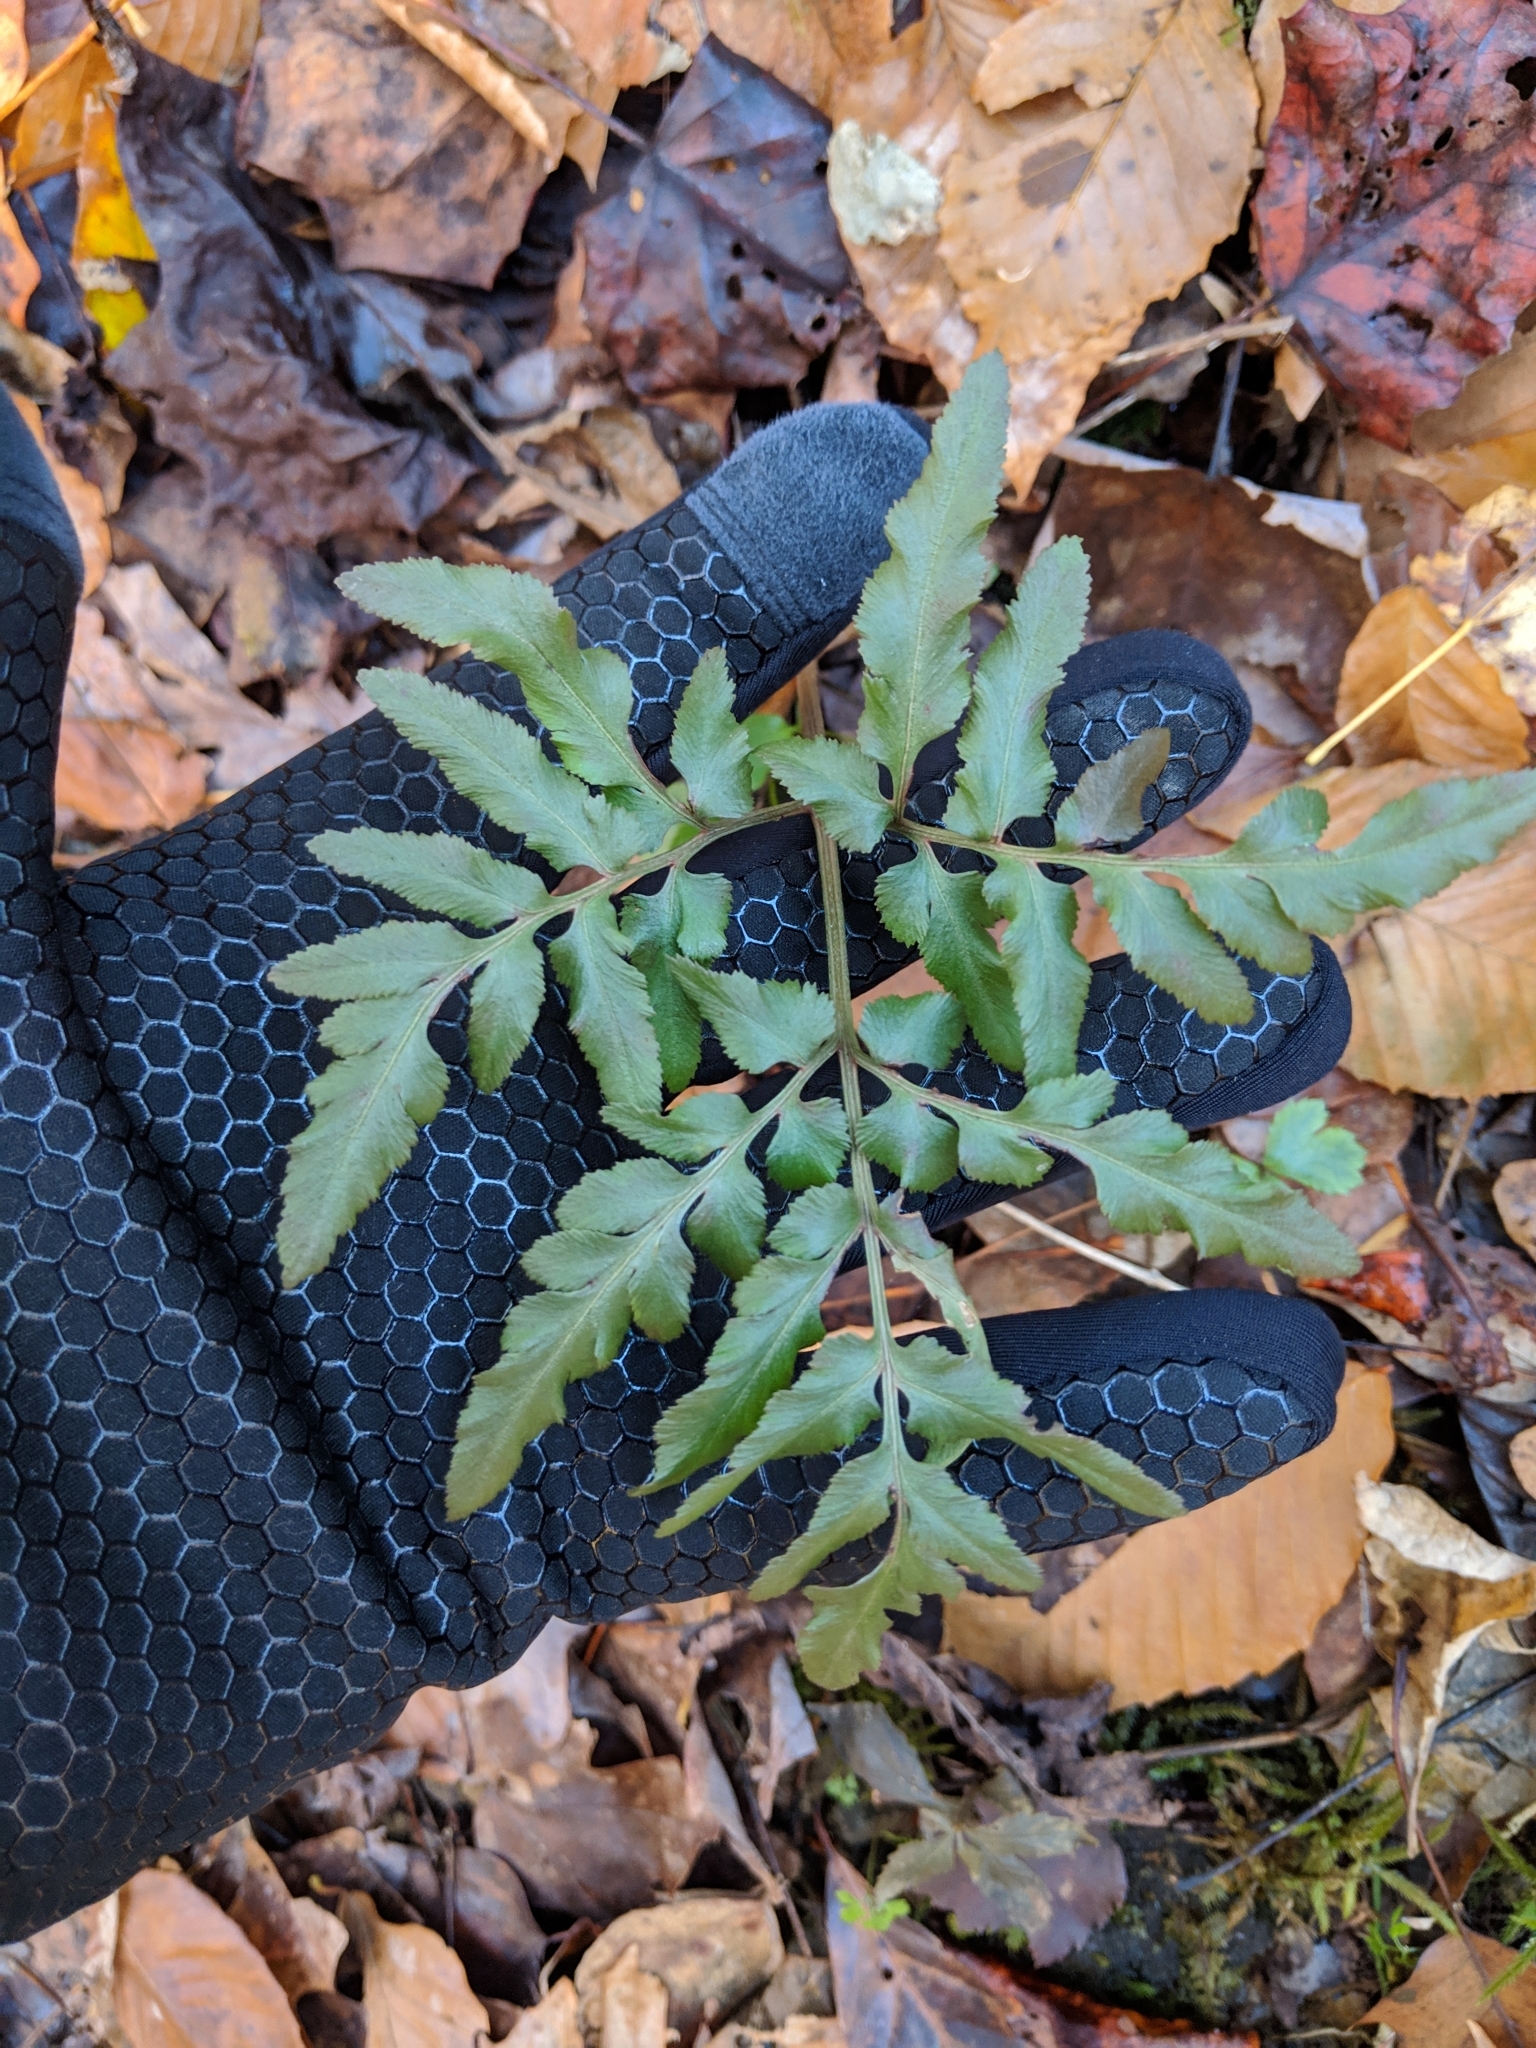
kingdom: Plantae
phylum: Tracheophyta
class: Polypodiopsida
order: Ophioglossales
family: Ophioglossaceae
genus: Sceptridium
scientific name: Sceptridium dissectum
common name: Cut-leaved grapefern
